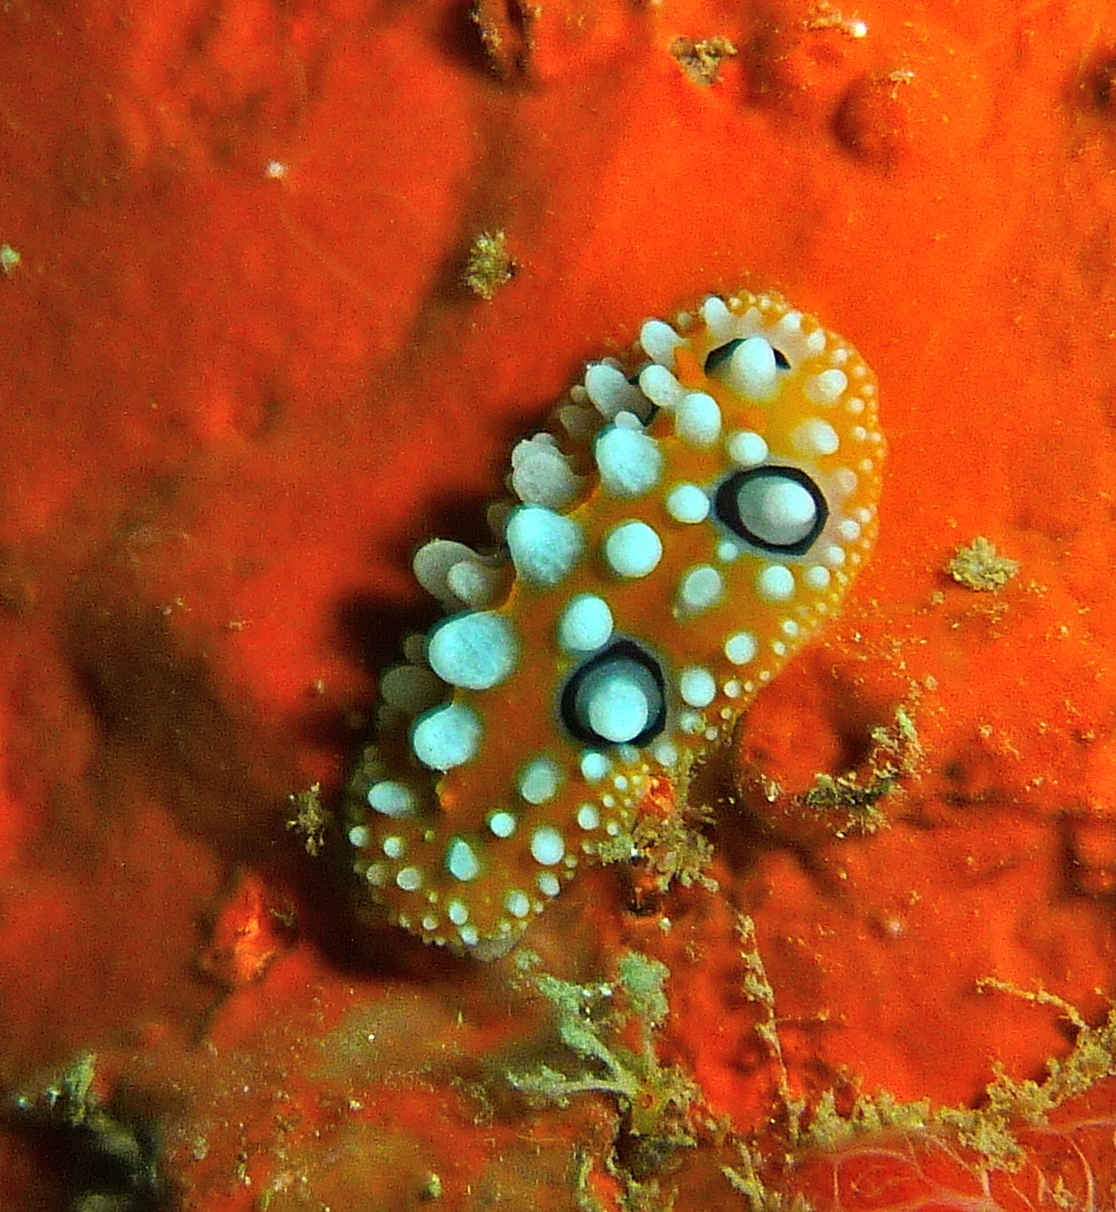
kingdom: Animalia
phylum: Mollusca
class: Gastropoda
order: Nudibranchia
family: Phyllidiidae
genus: Phyllidia
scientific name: Phyllidia ocellata
